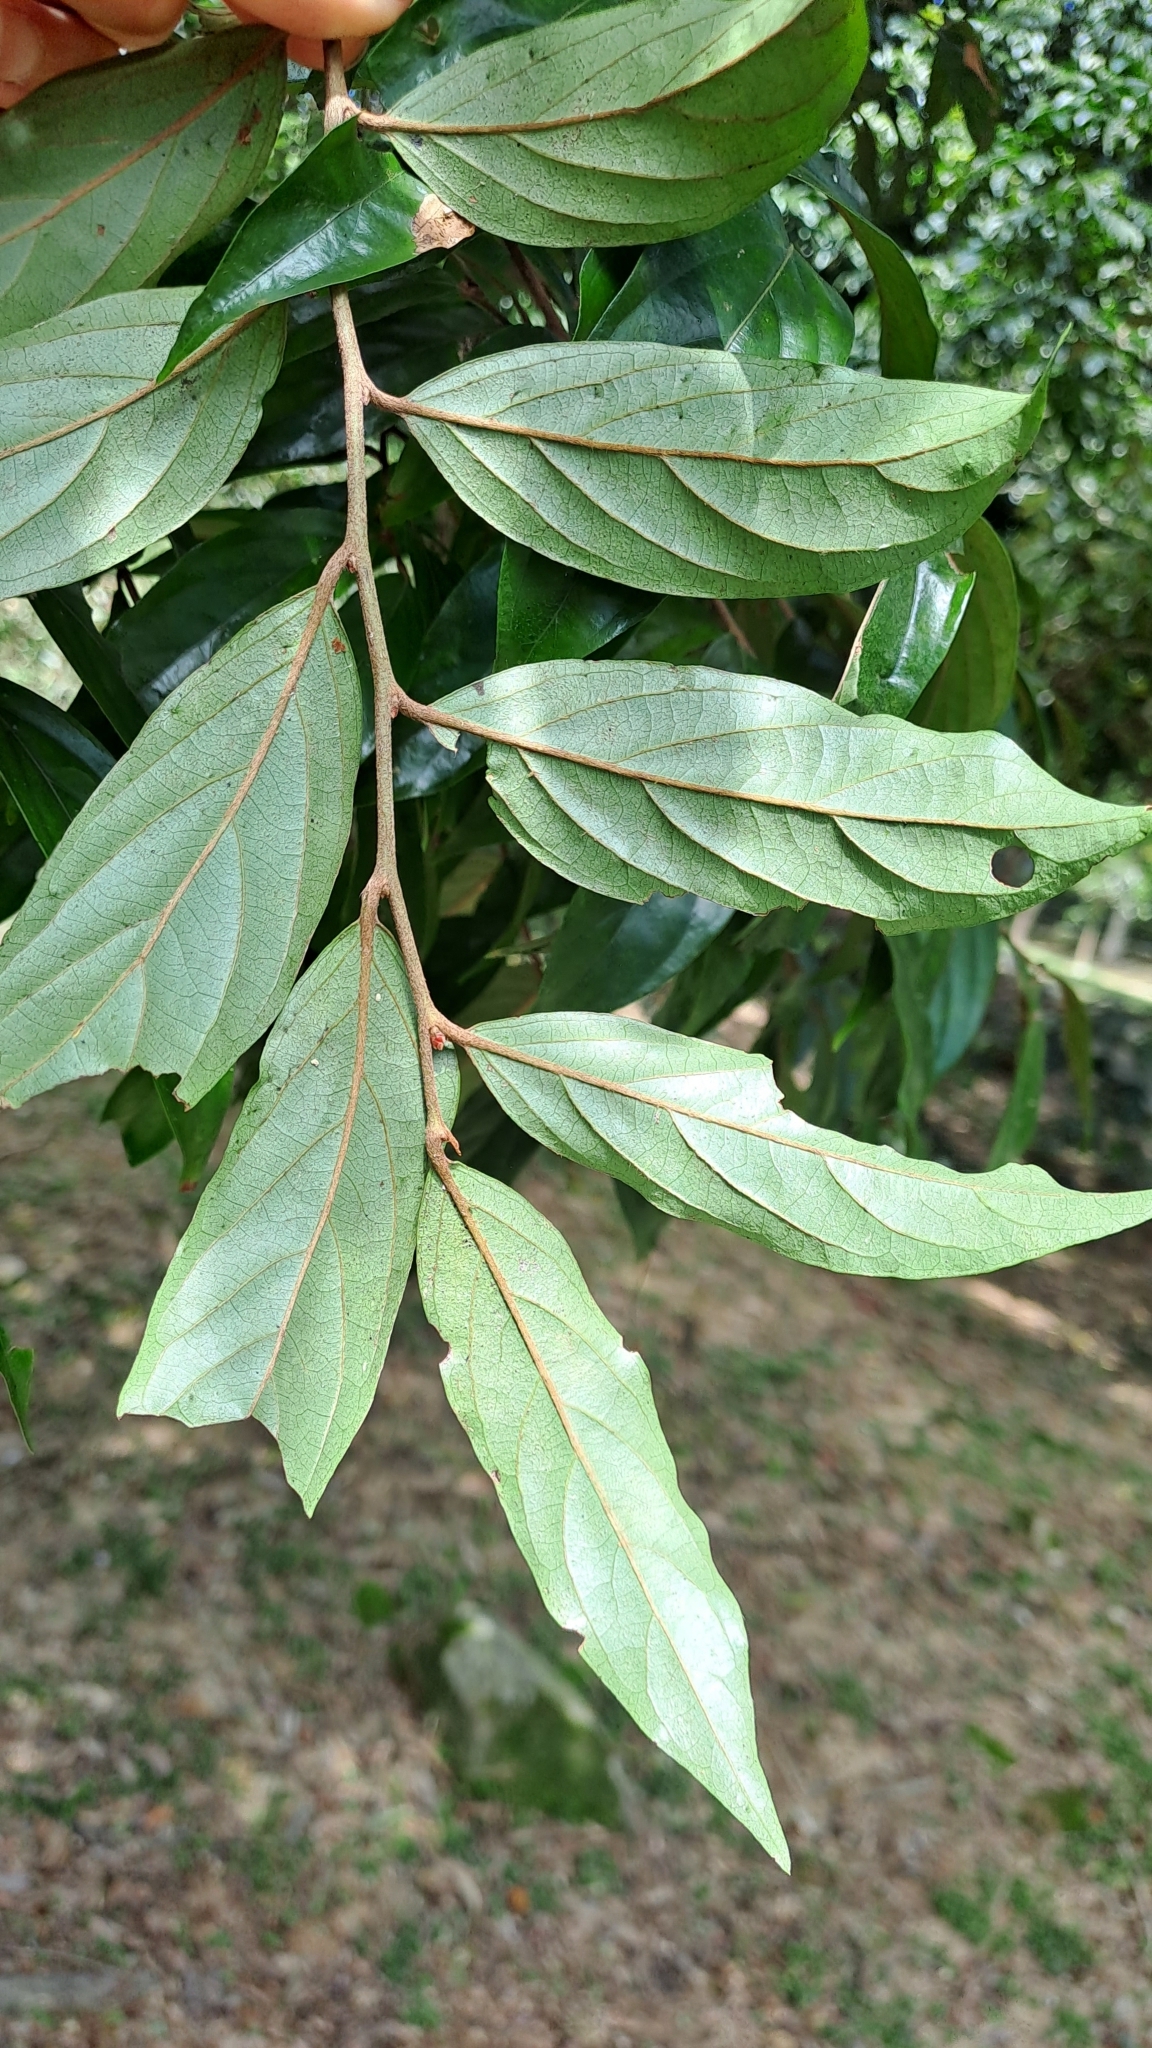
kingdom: Plantae
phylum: Tracheophyta
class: Magnoliopsida
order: Ericales
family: Ebenaceae
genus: Diospyros
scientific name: Diospyros eriantha
